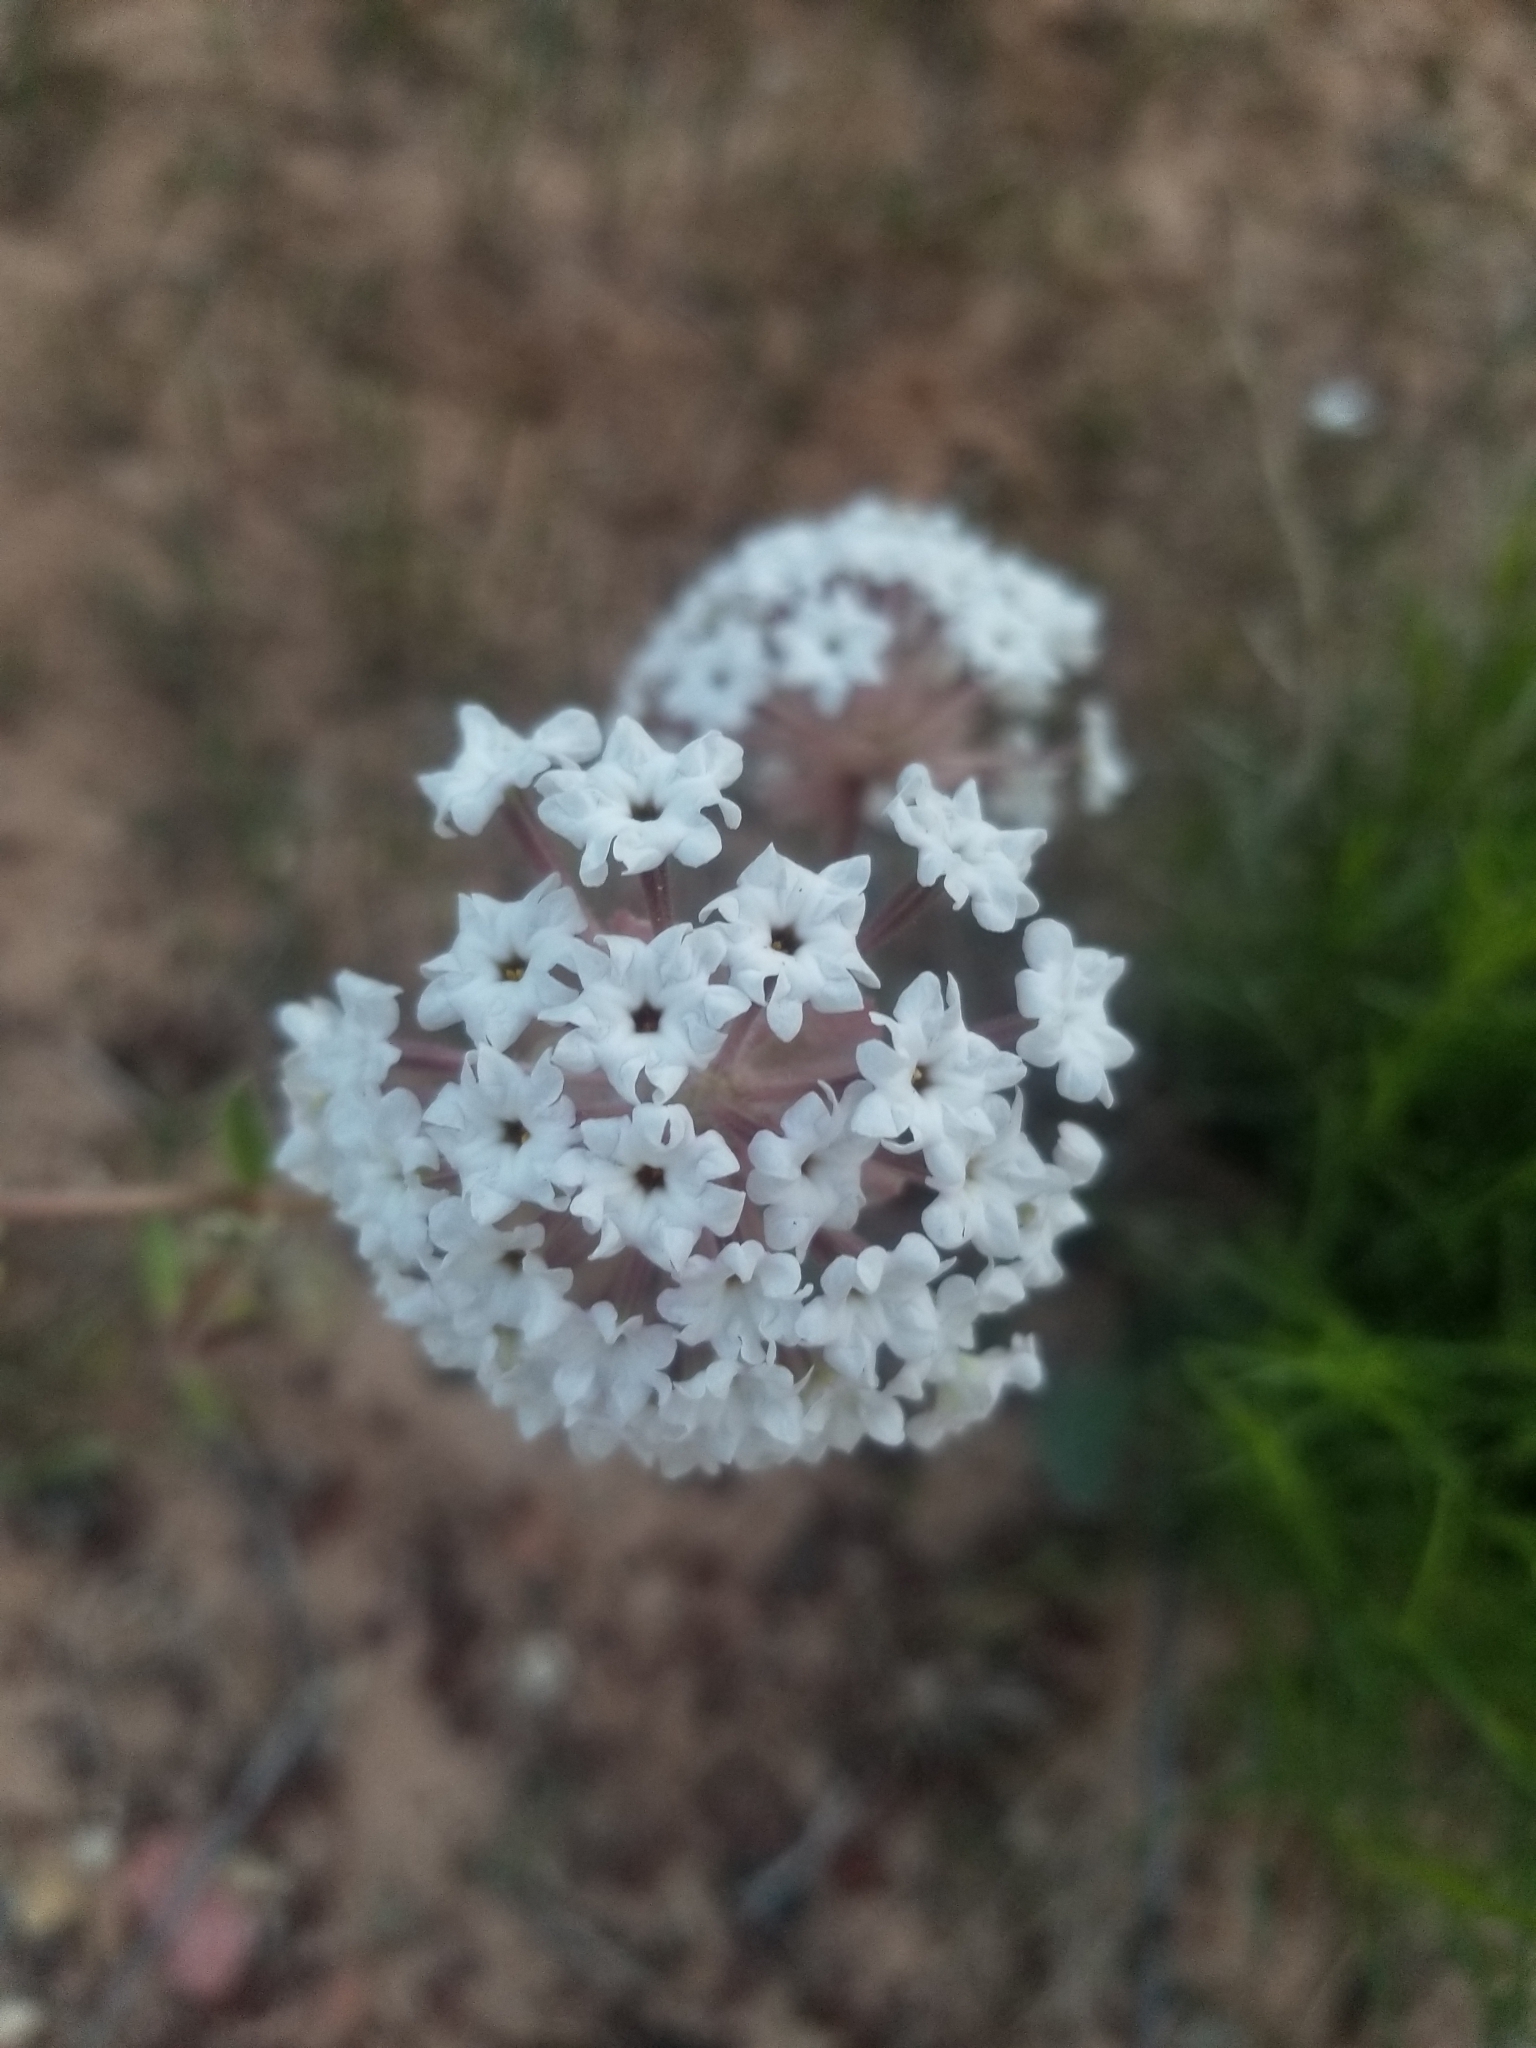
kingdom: Plantae
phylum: Tracheophyta
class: Magnoliopsida
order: Caryophyllales
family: Nyctaginaceae
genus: Abronia
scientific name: Abronia elliptica
